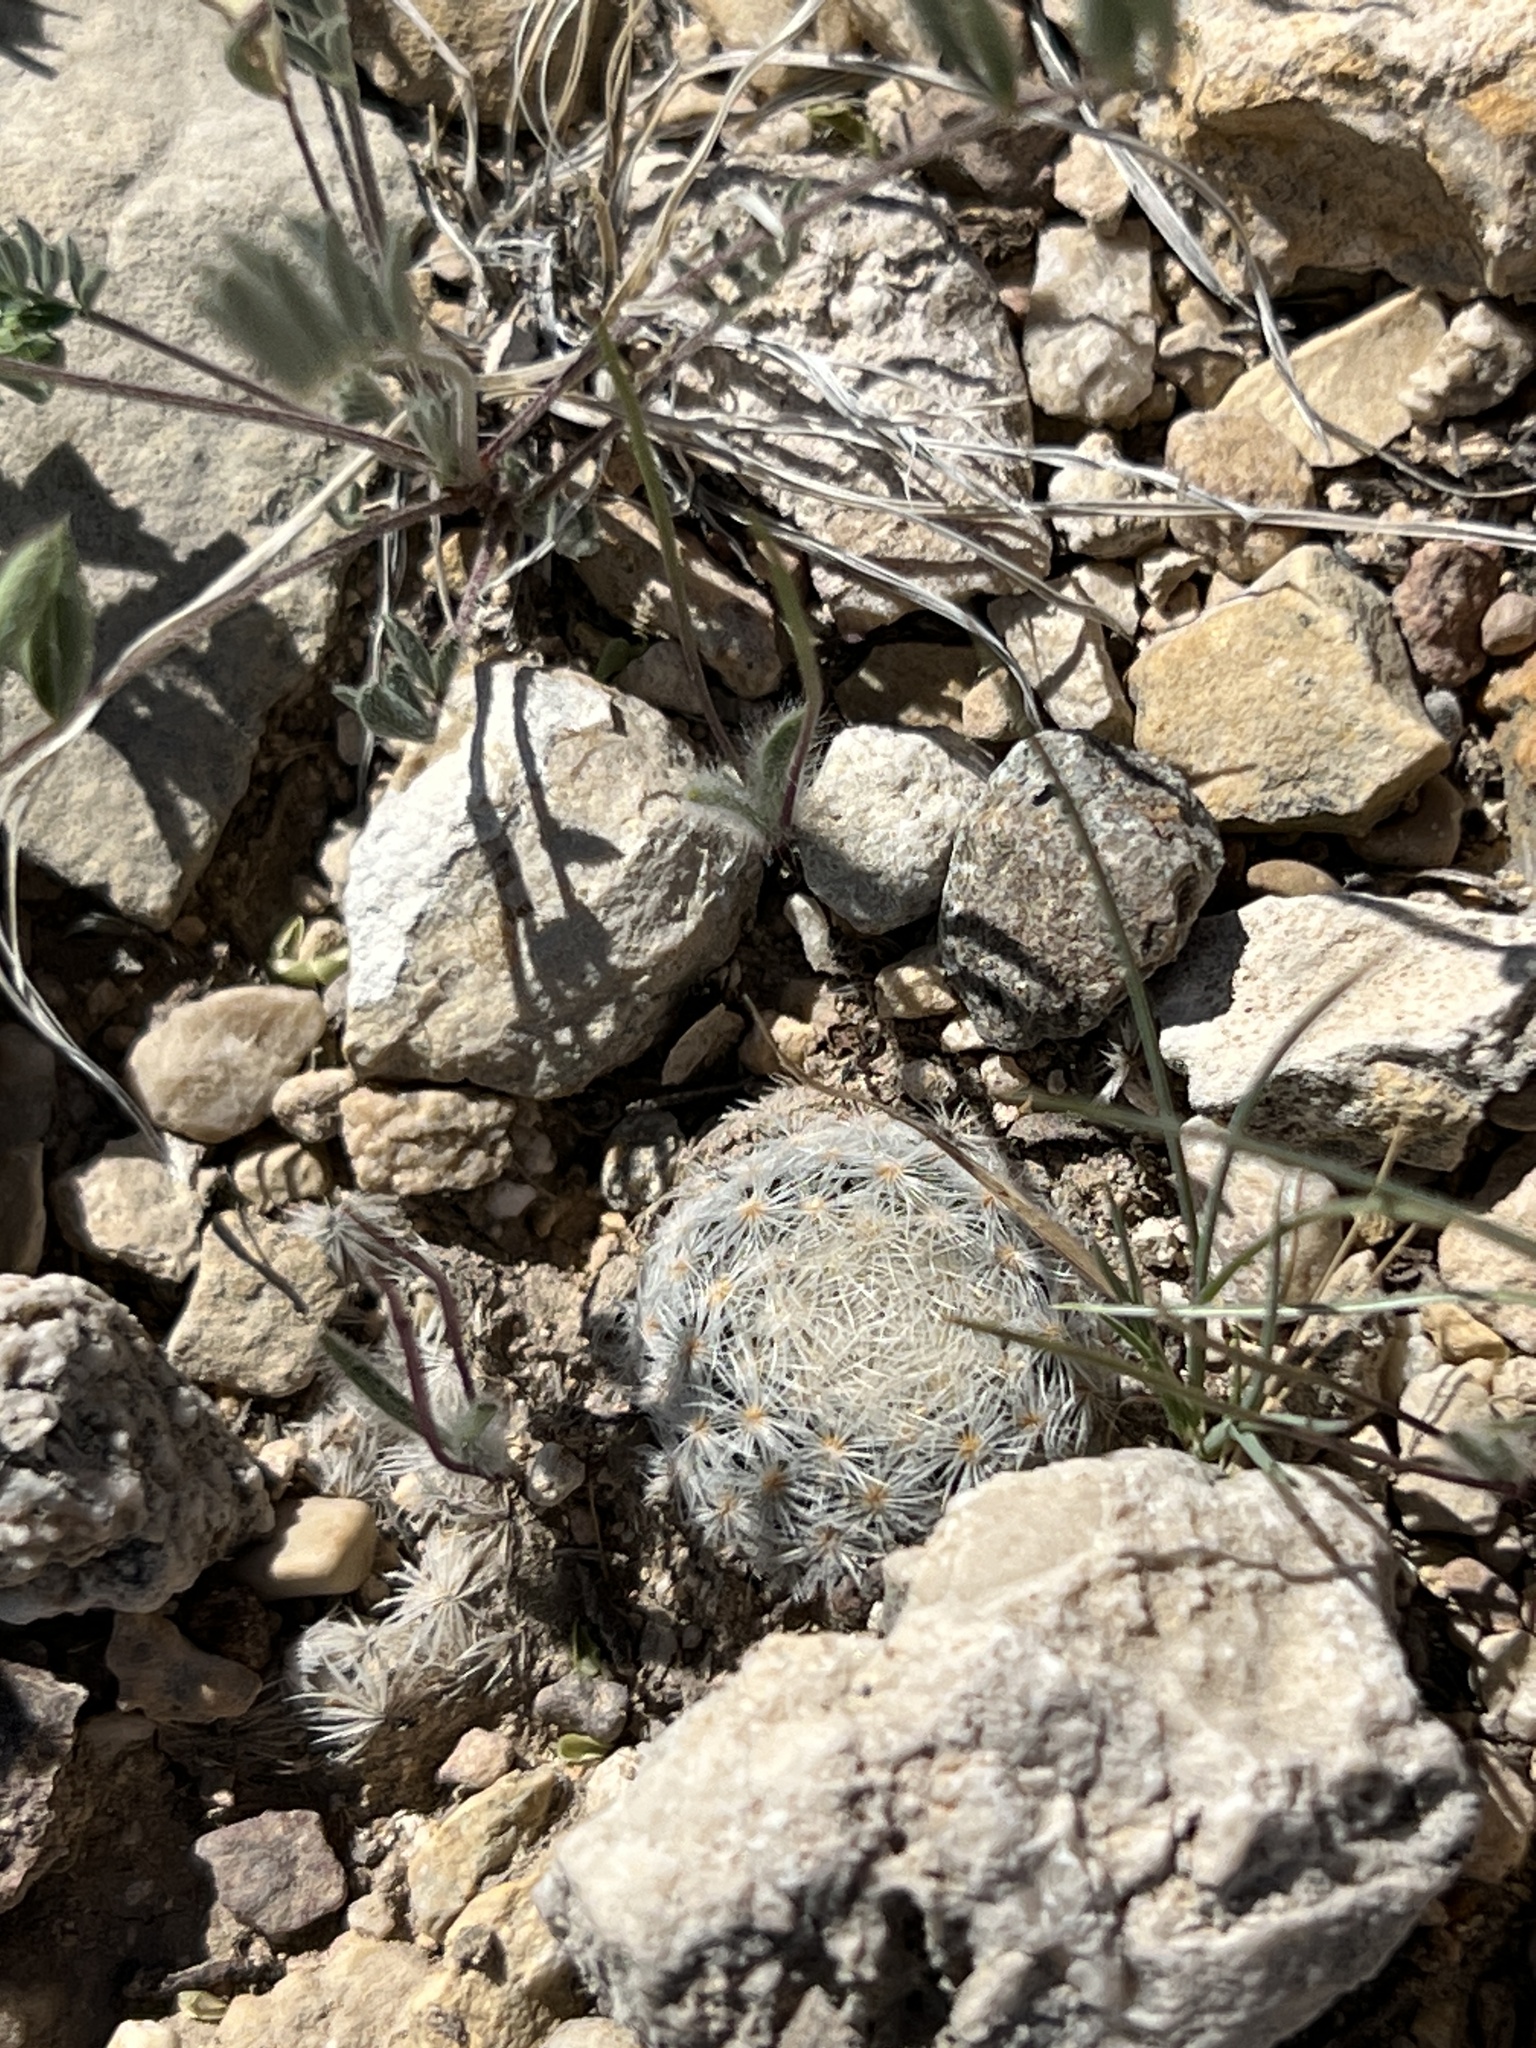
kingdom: Plantae
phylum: Tracheophyta
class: Magnoliopsida
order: Caryophyllales
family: Cactaceae
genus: Mammillaria
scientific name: Mammillaria lasiacantha
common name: Lace-spine nipple cactus
